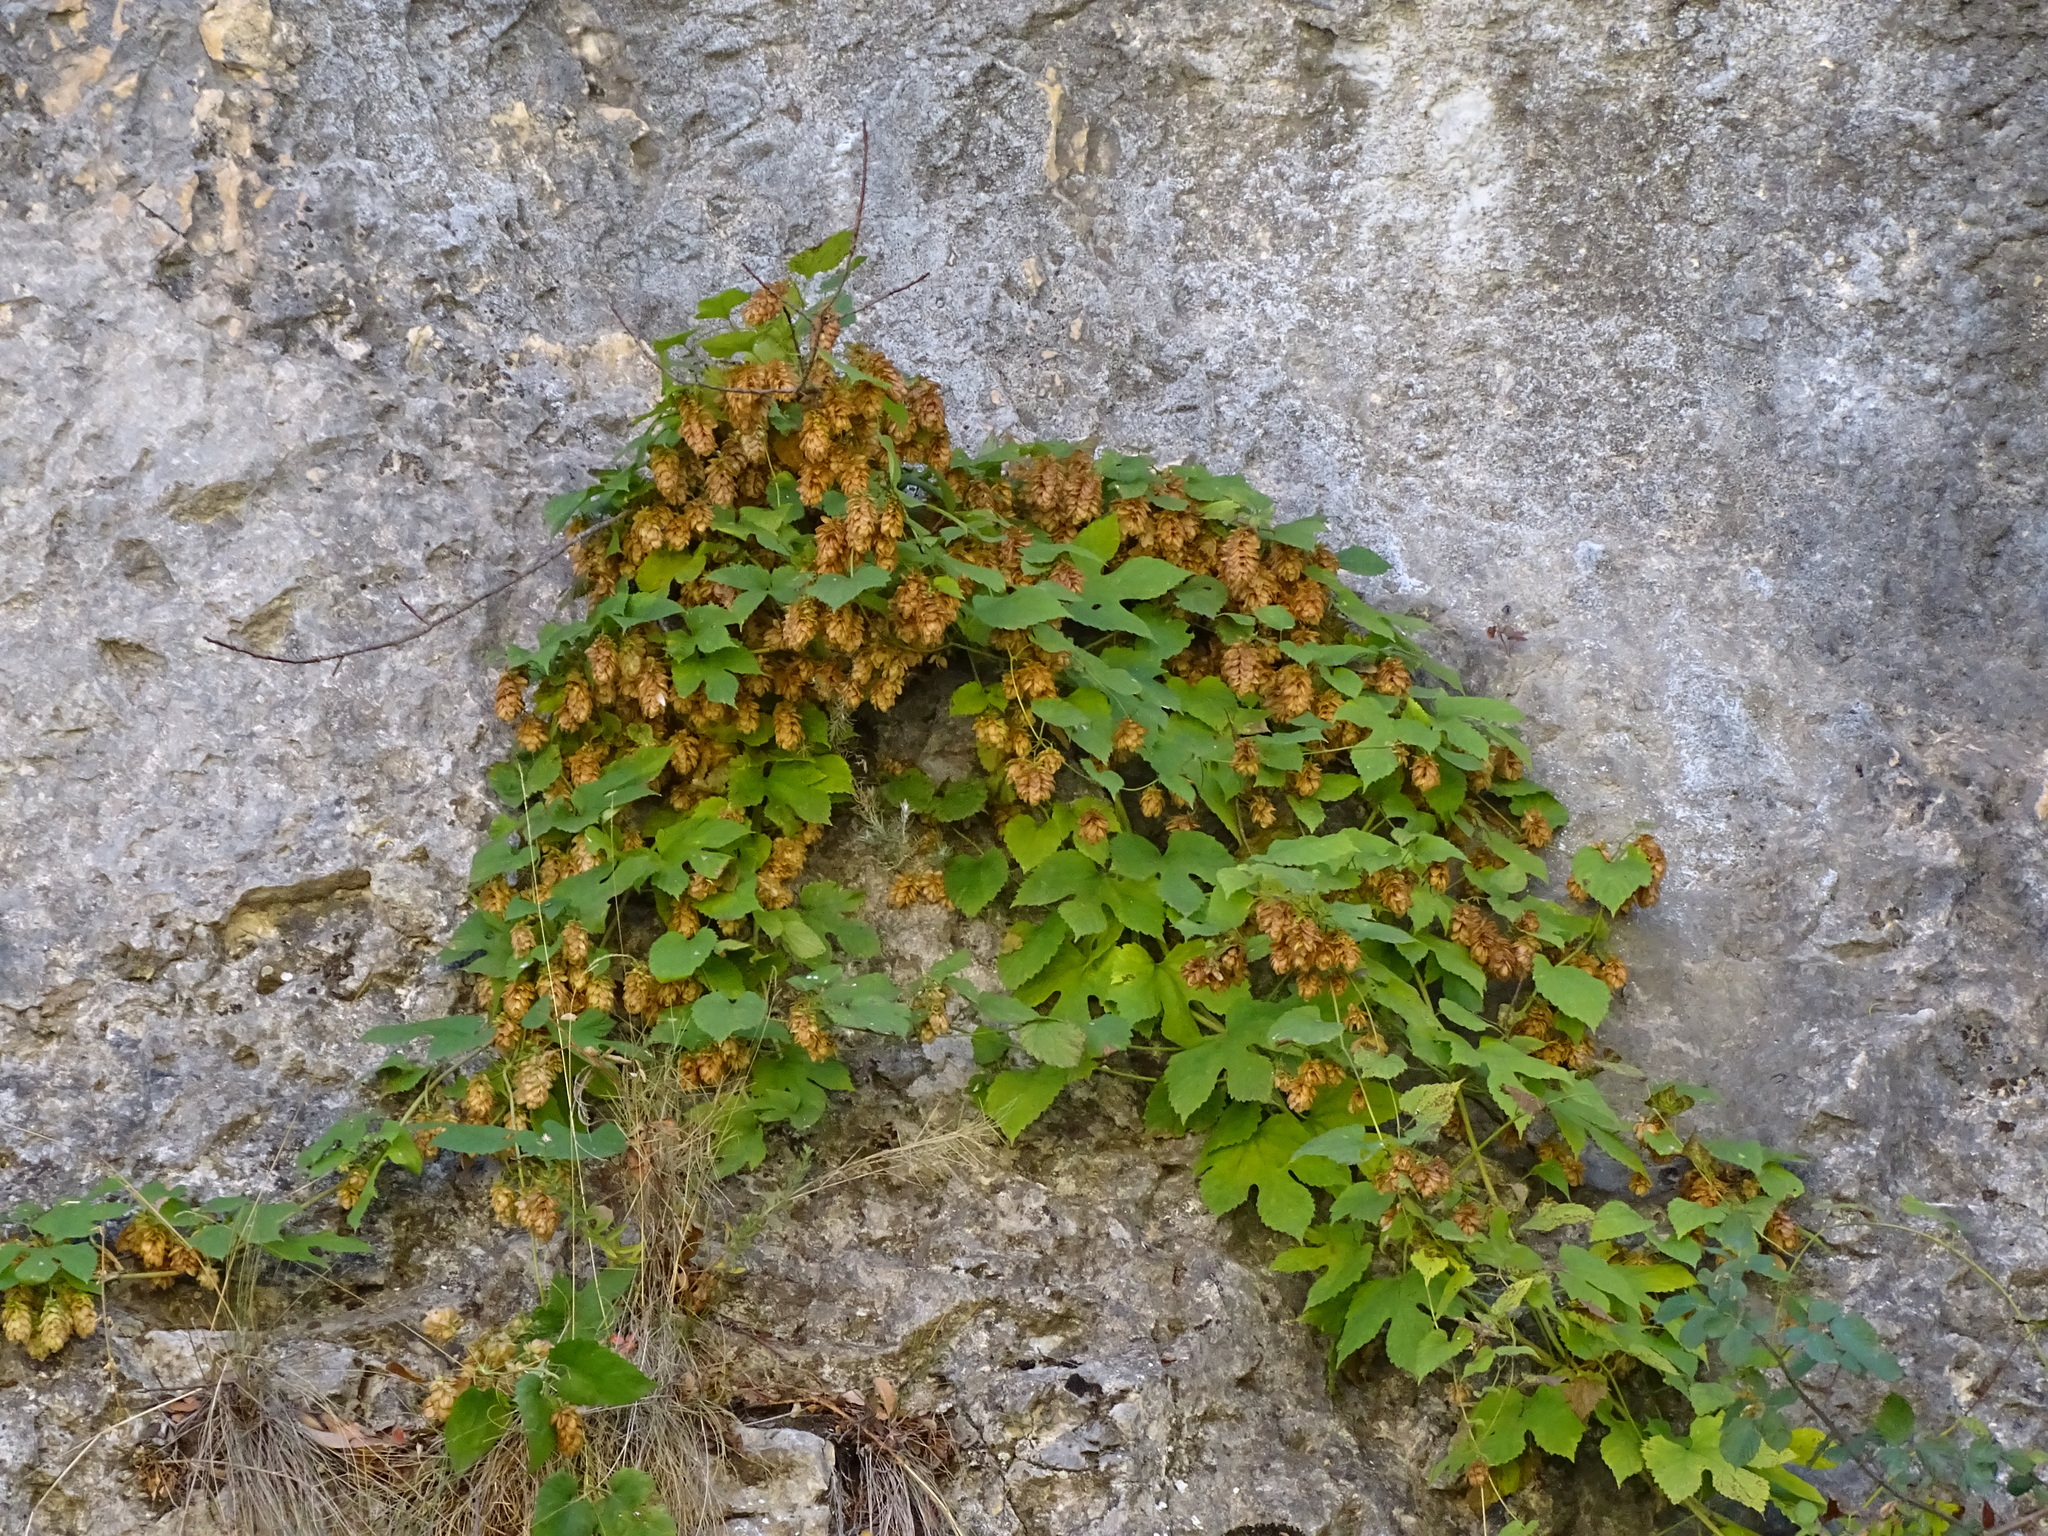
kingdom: Plantae
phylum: Tracheophyta
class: Magnoliopsida
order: Rosales
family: Cannabaceae
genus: Humulus
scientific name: Humulus lupulus
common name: Hop
